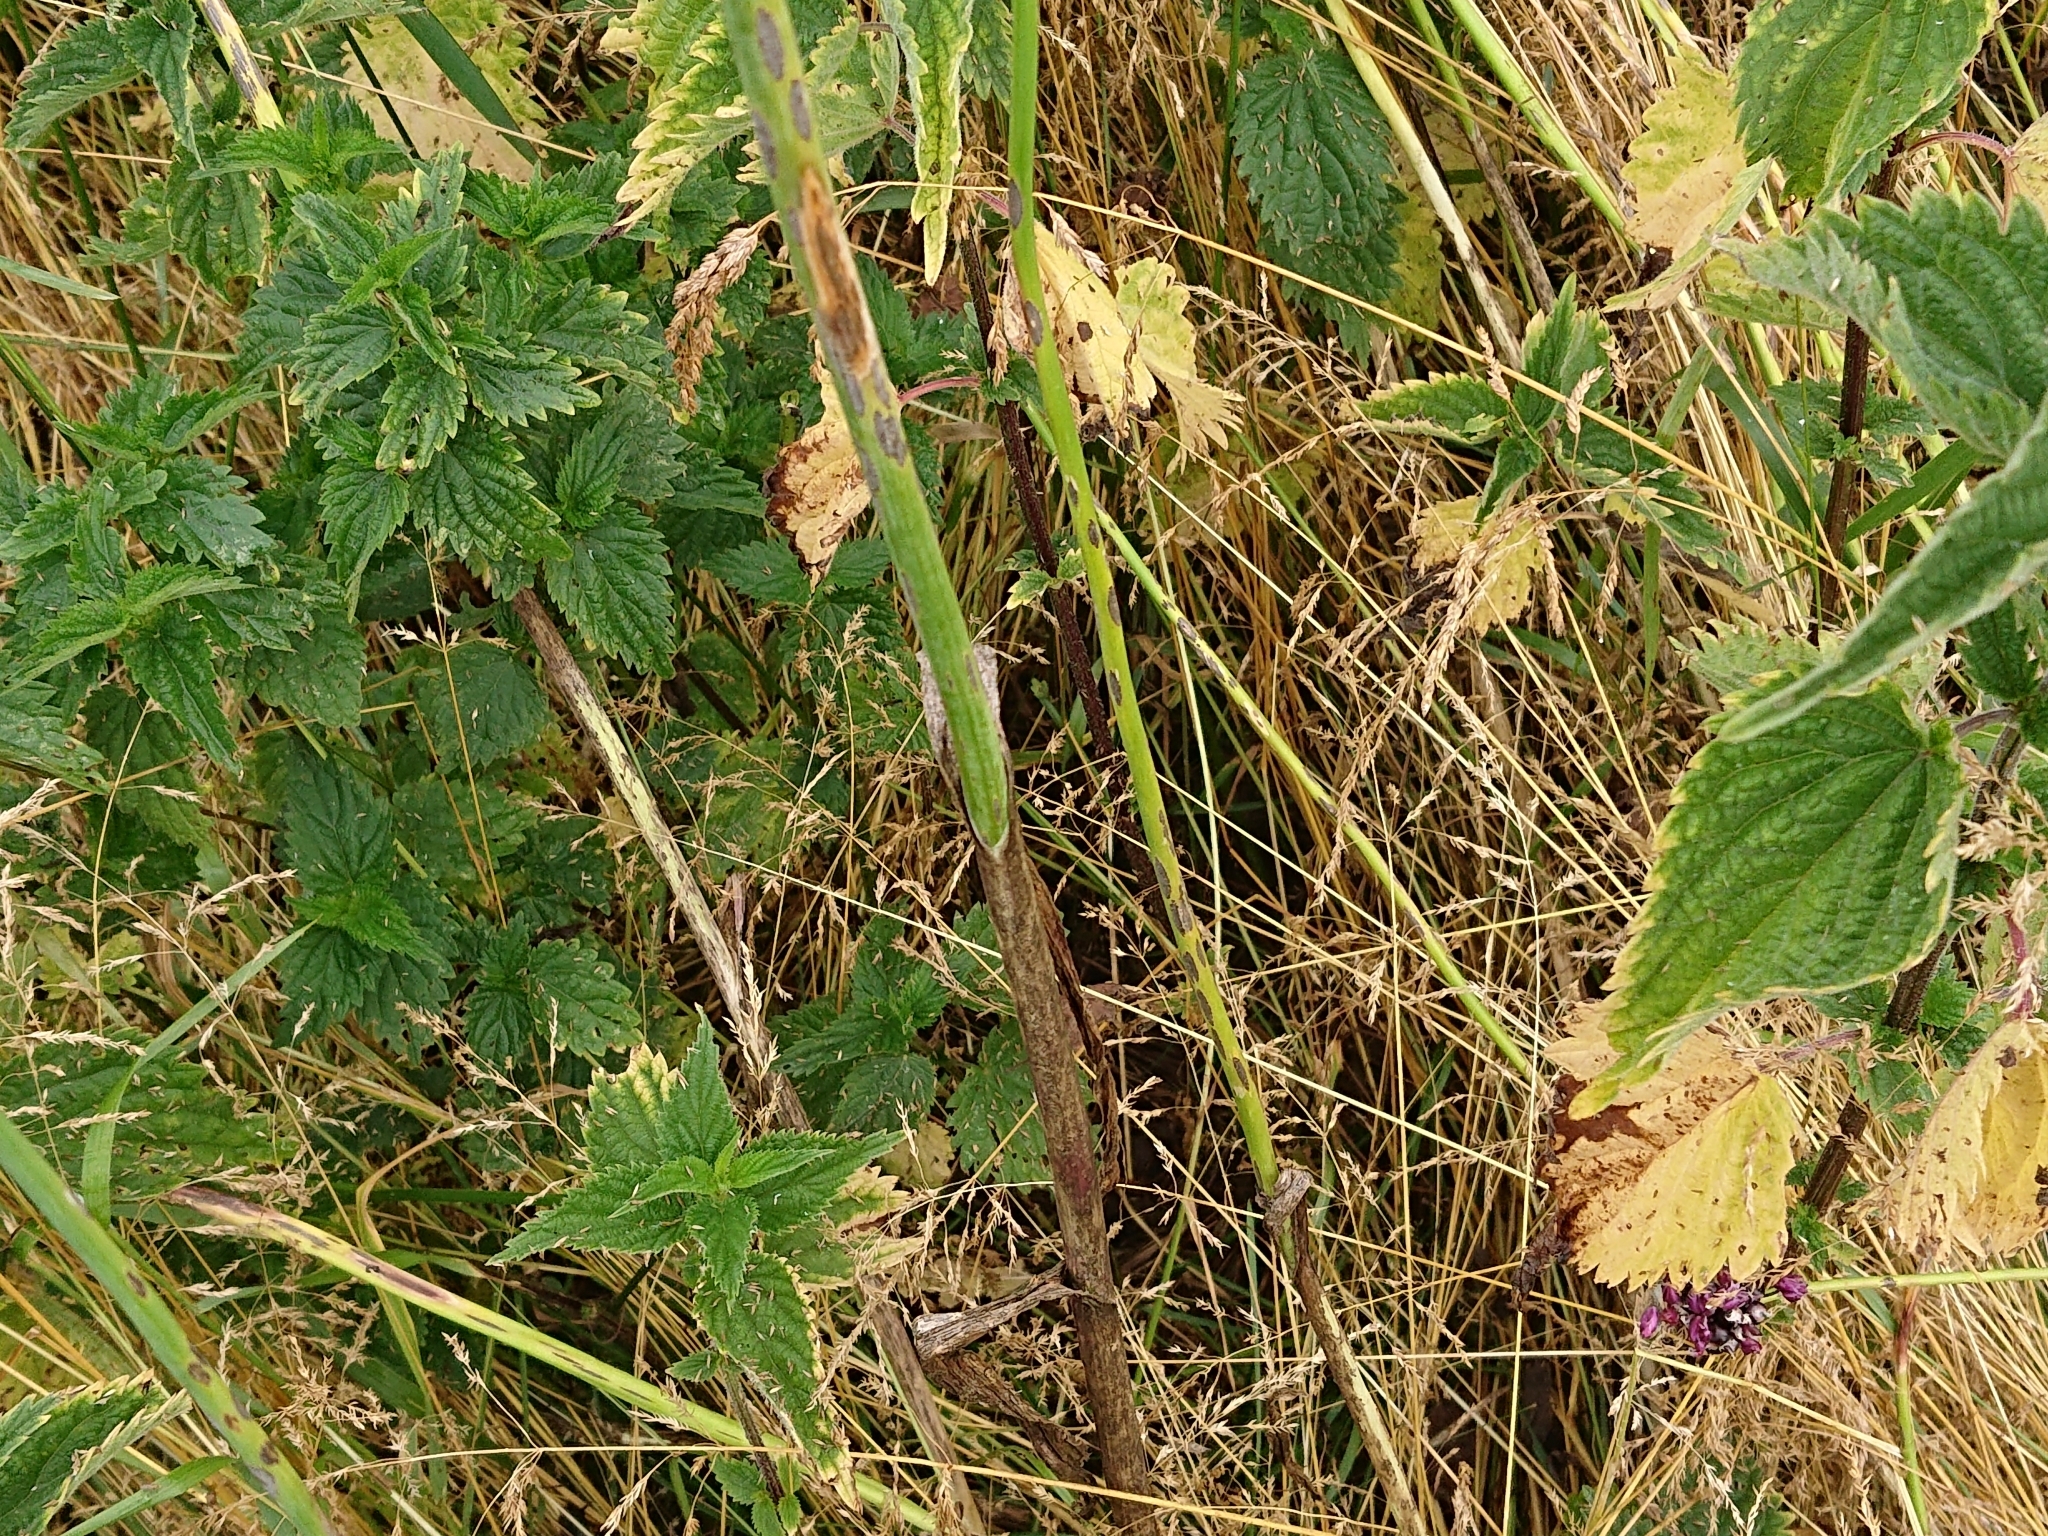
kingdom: Plantae
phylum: Tracheophyta
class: Liliopsida
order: Asparagales
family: Amaryllidaceae
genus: Allium
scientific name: Allium scorodoprasum
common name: Sand leek
